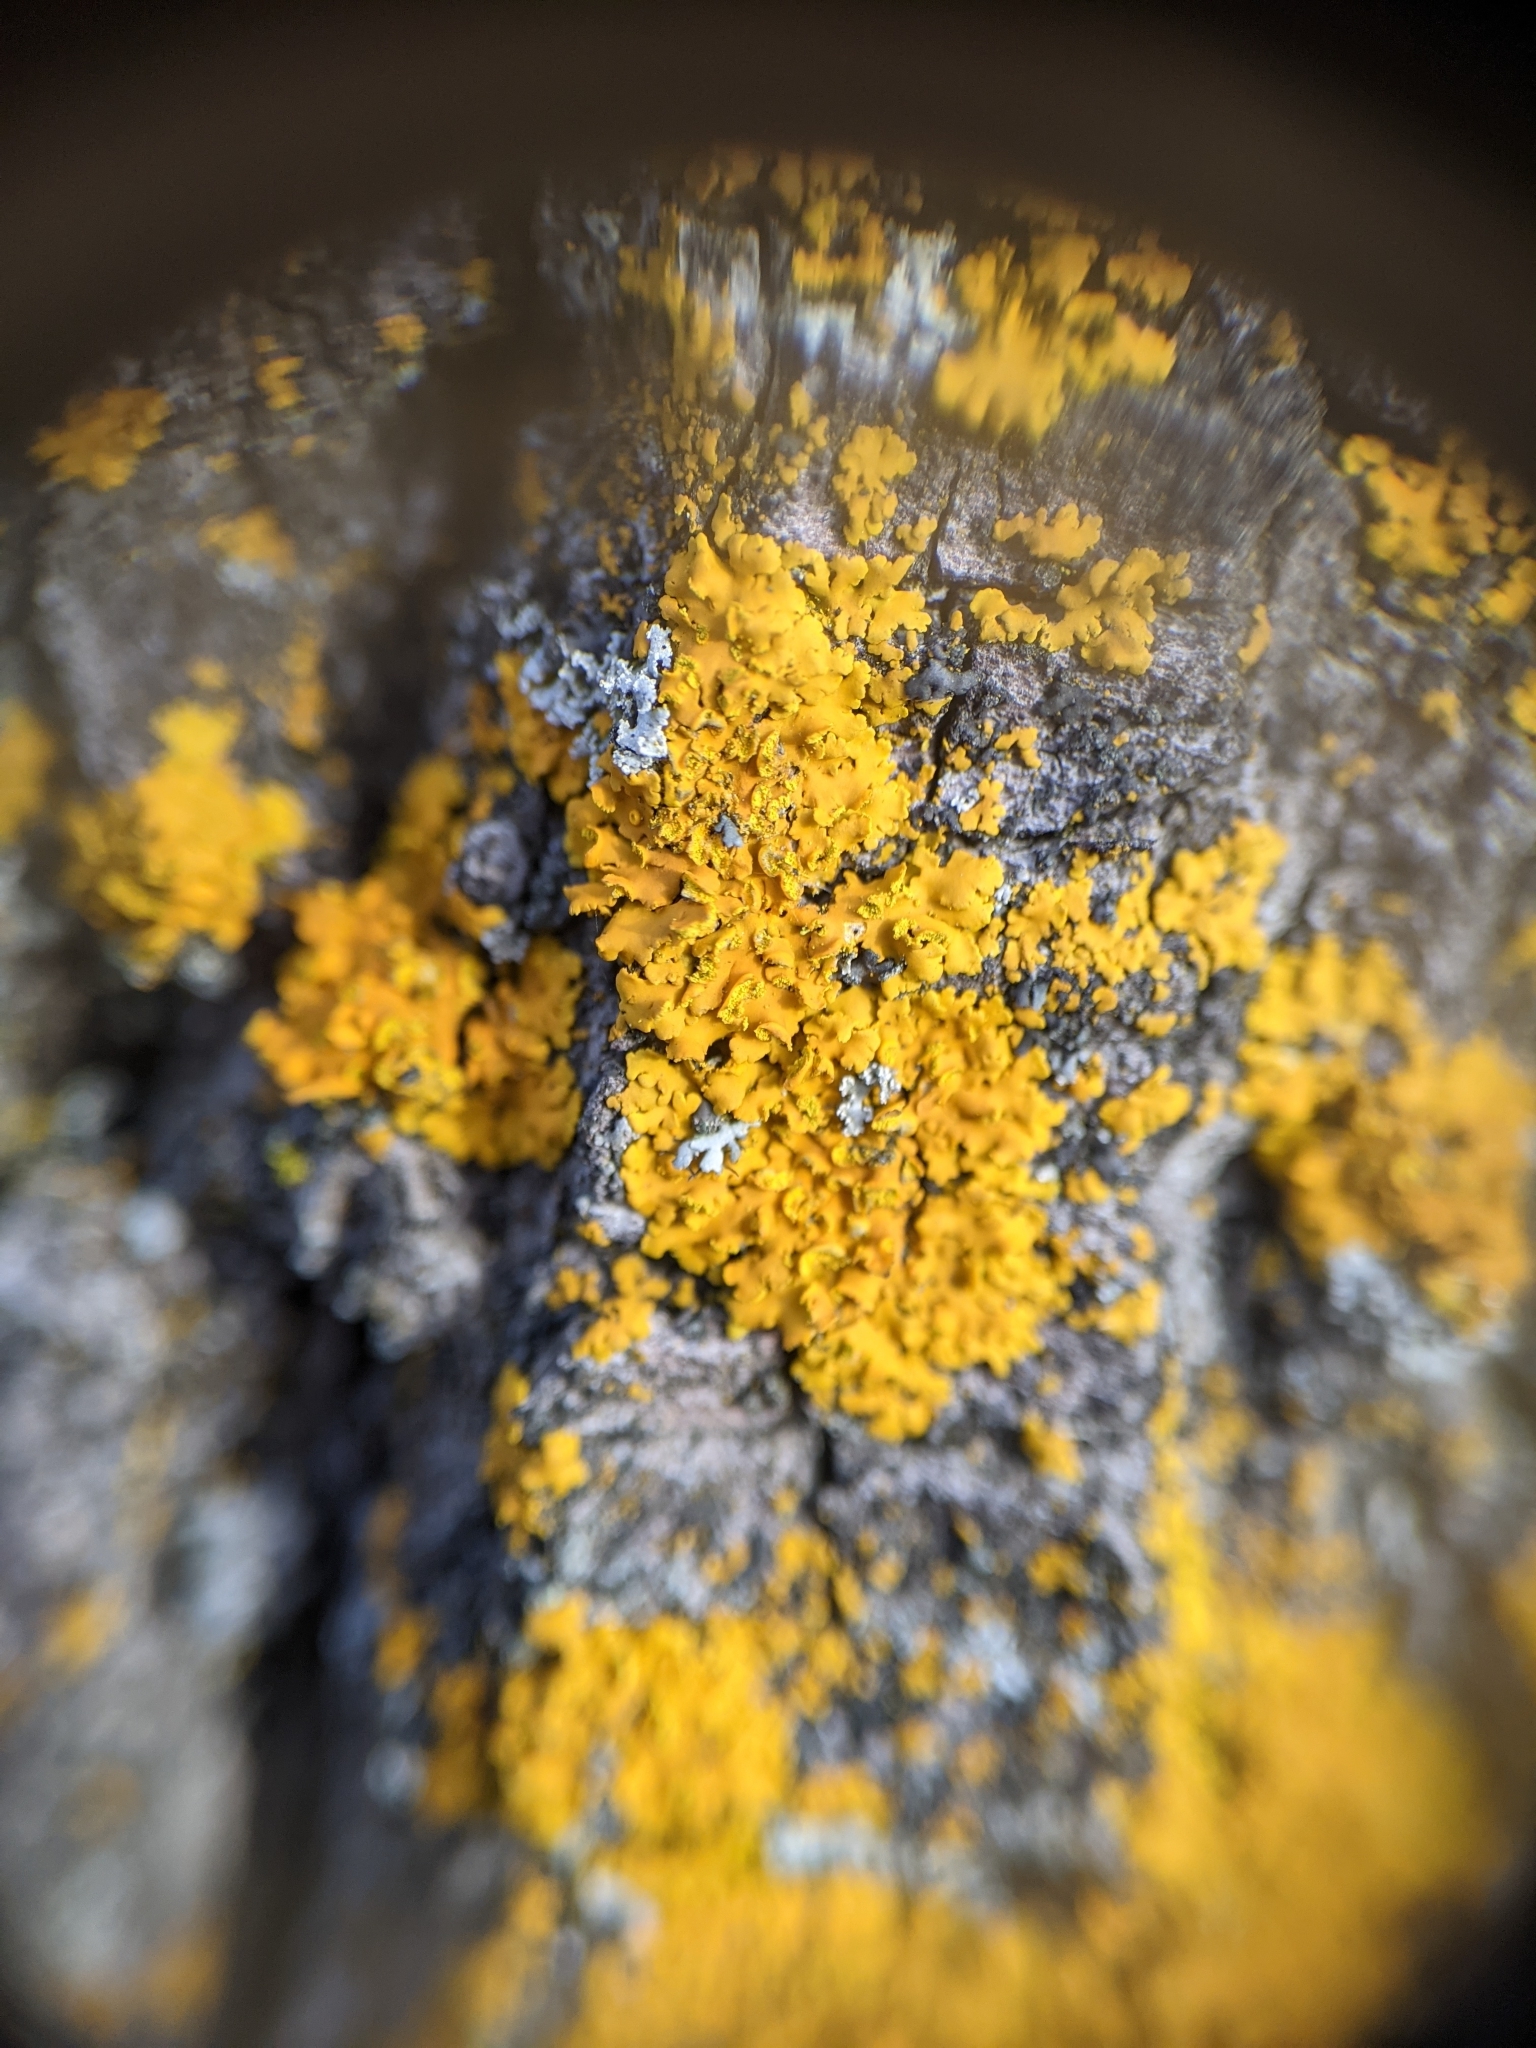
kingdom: Fungi
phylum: Ascomycota
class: Lecanoromycetes
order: Teloschistales
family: Teloschistaceae
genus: Oxneria
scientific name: Oxneria fallax
